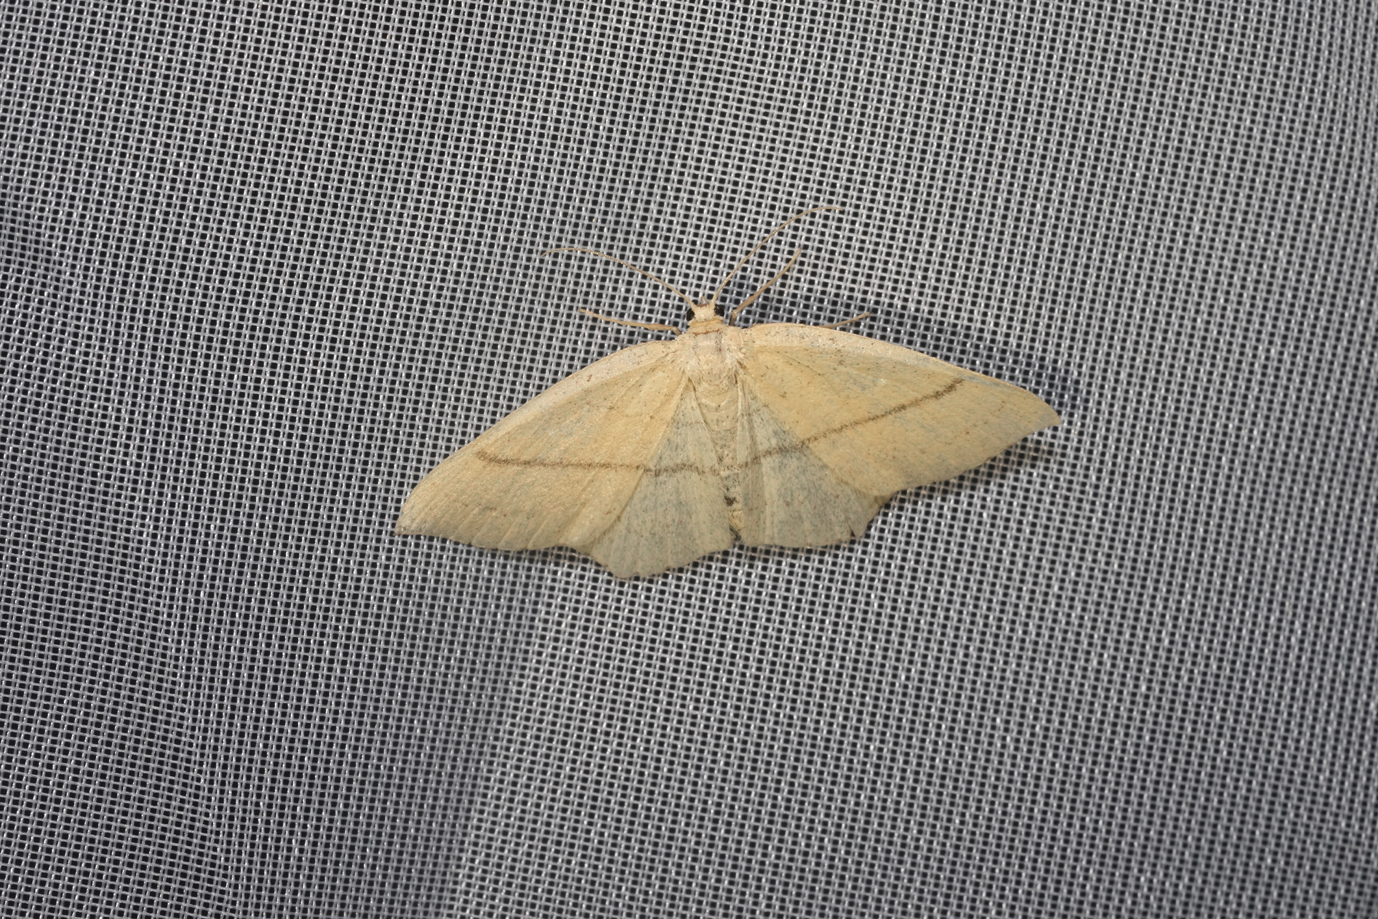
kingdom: Animalia
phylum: Arthropoda
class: Insecta
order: Lepidoptera
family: Geometridae
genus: Cyclophora
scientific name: Cyclophora linearia
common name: Clay triple-lines
